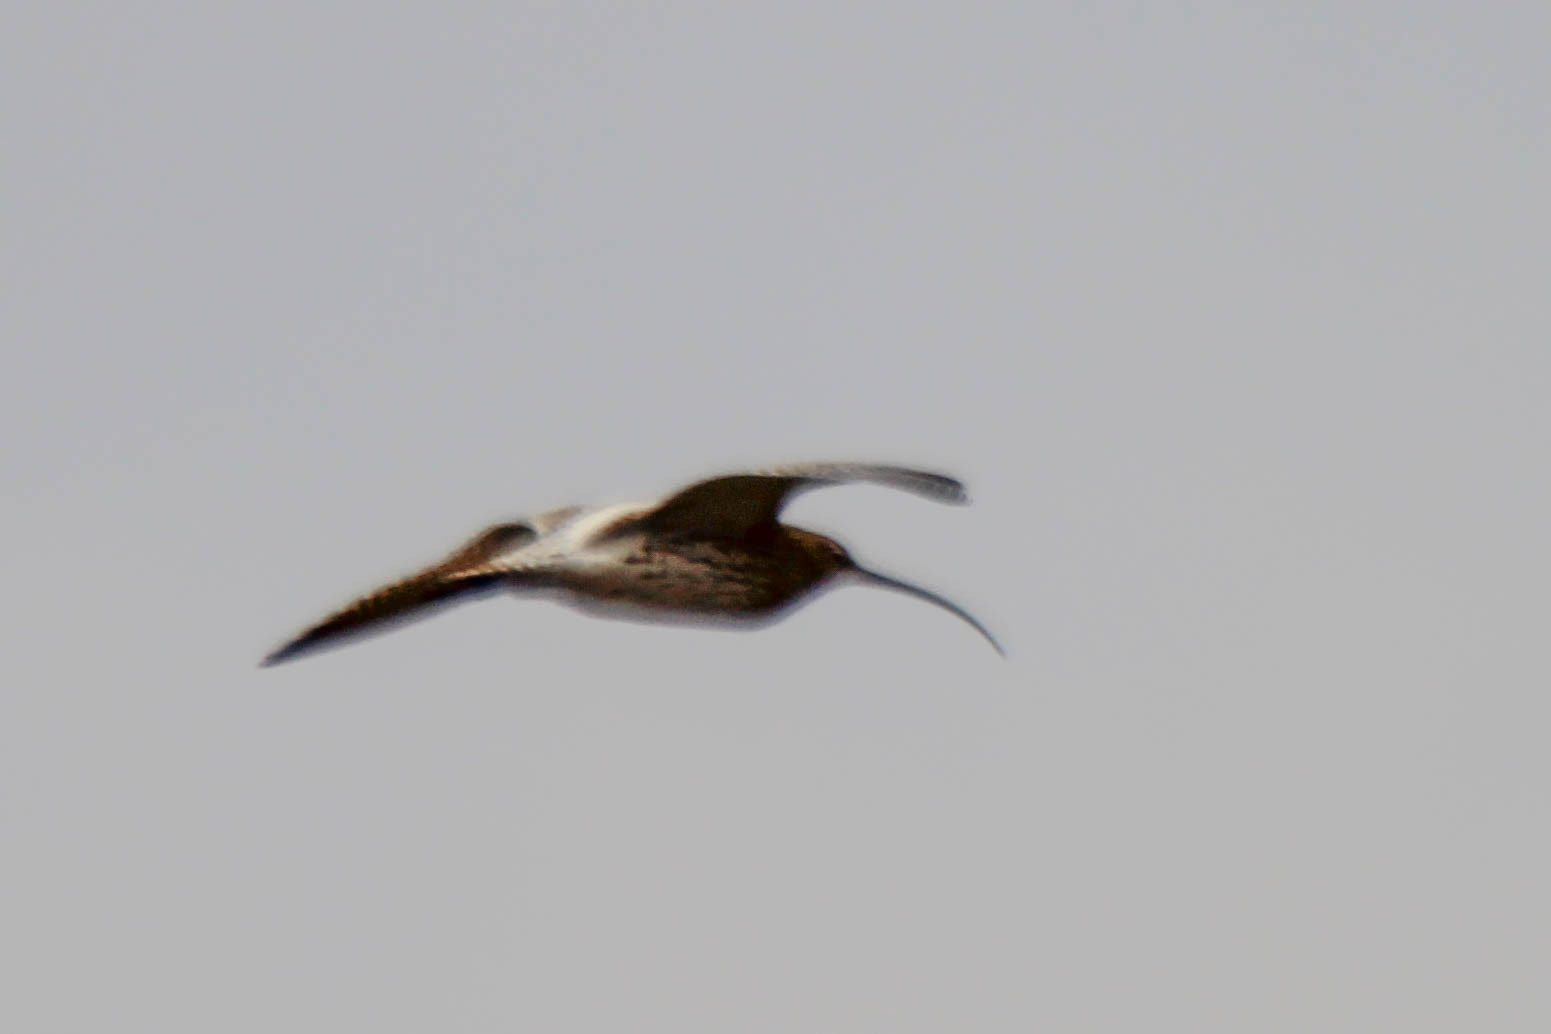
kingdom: Animalia
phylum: Chordata
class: Aves
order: Charadriiformes
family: Scolopacidae
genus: Numenius
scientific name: Numenius arquata
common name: Eurasian curlew
